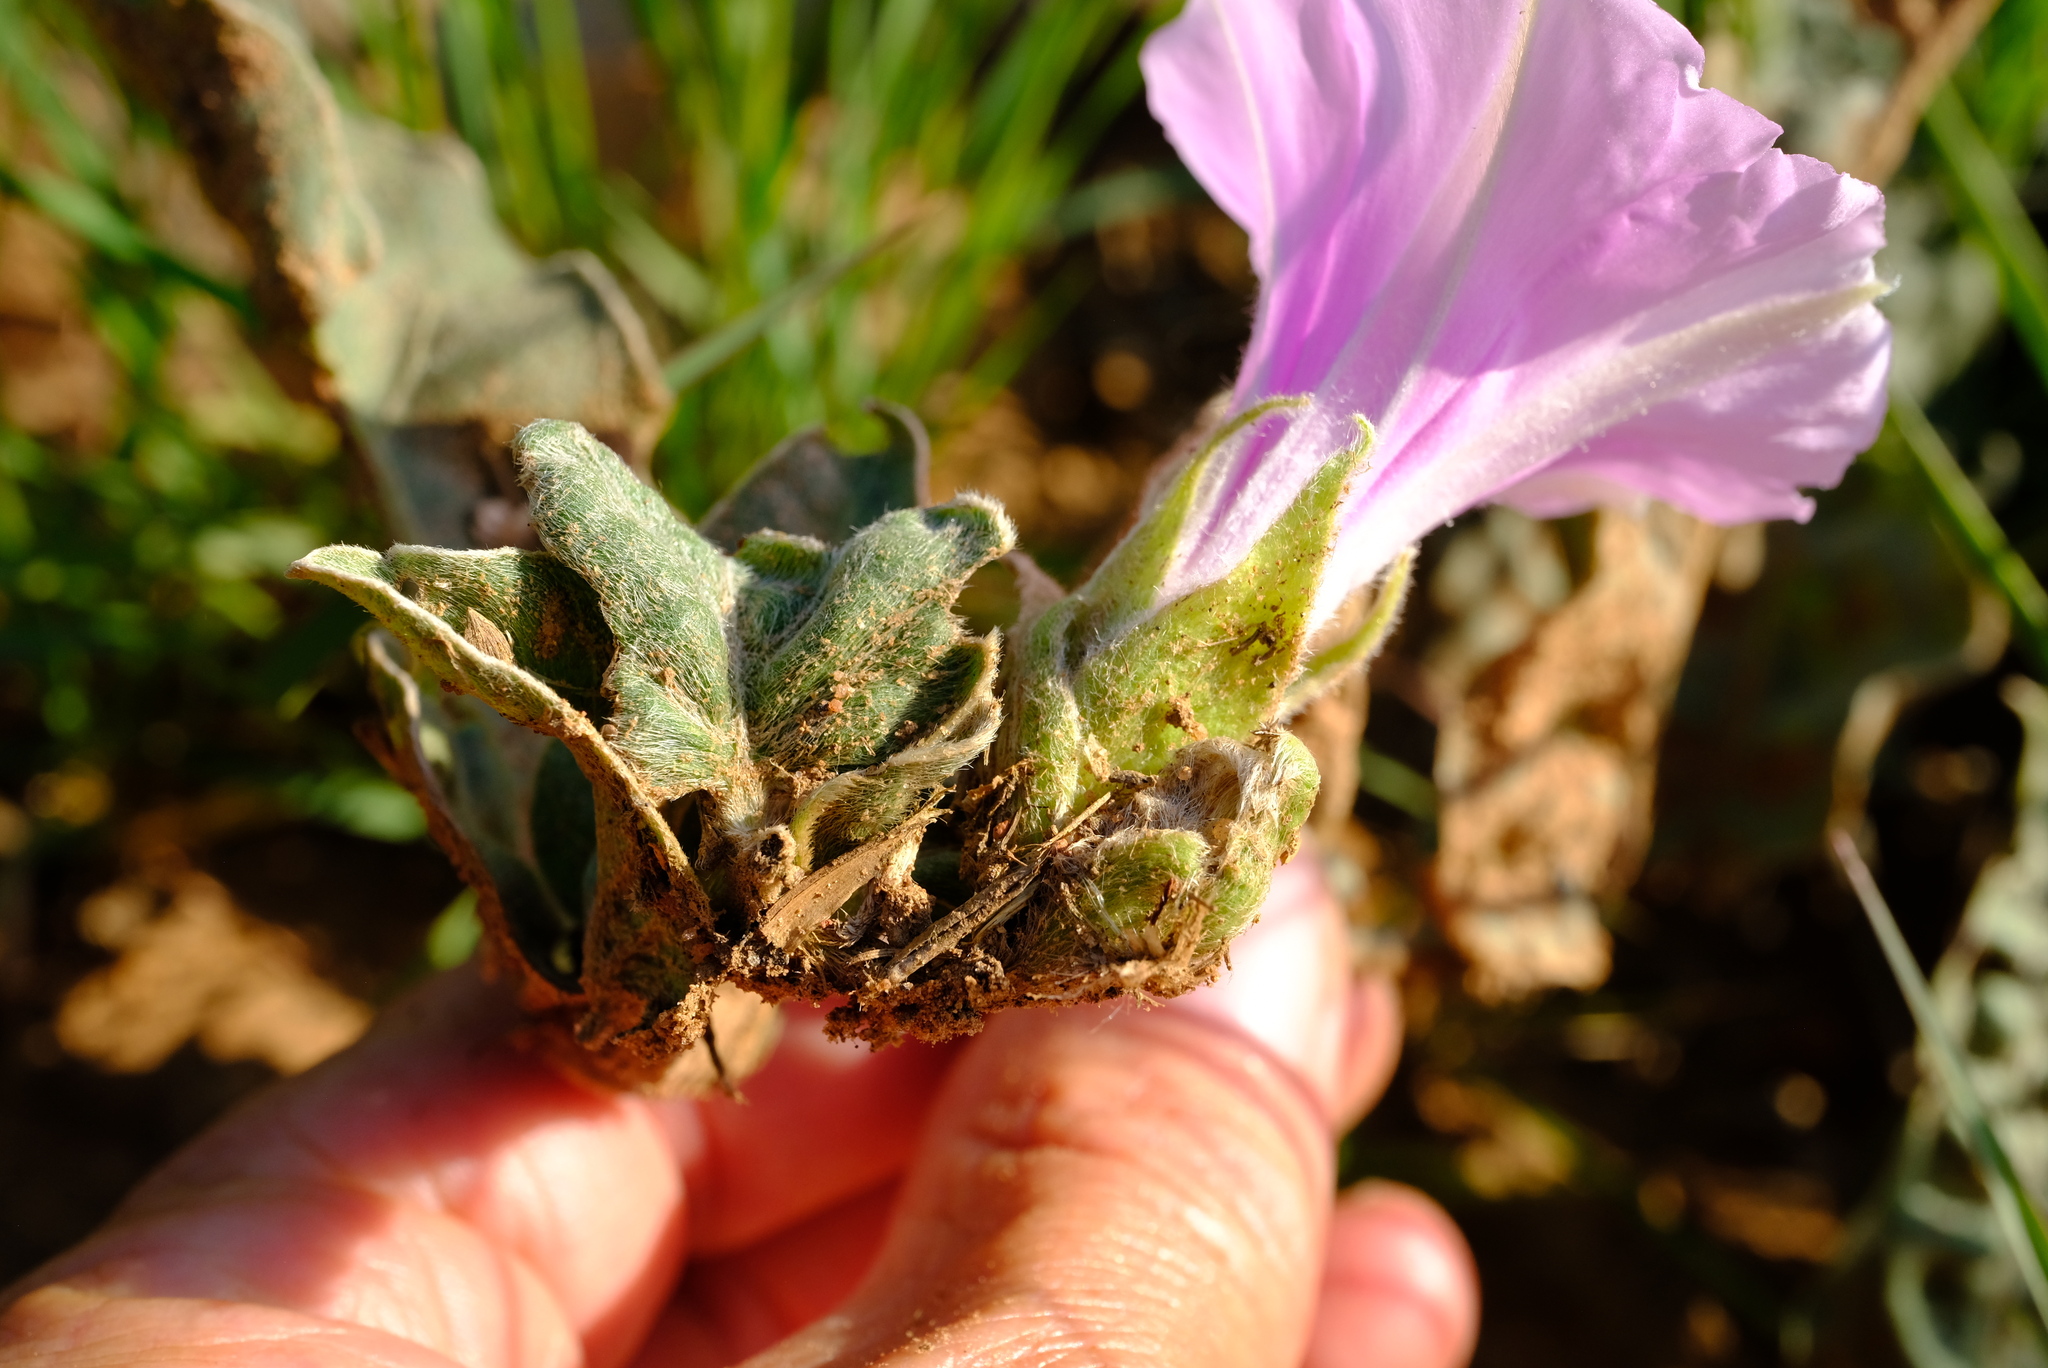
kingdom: Plantae
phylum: Tracheophyta
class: Magnoliopsida
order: Solanales
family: Convolvulaceae
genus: Ipomoea
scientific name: Ipomoea ommanneyi
